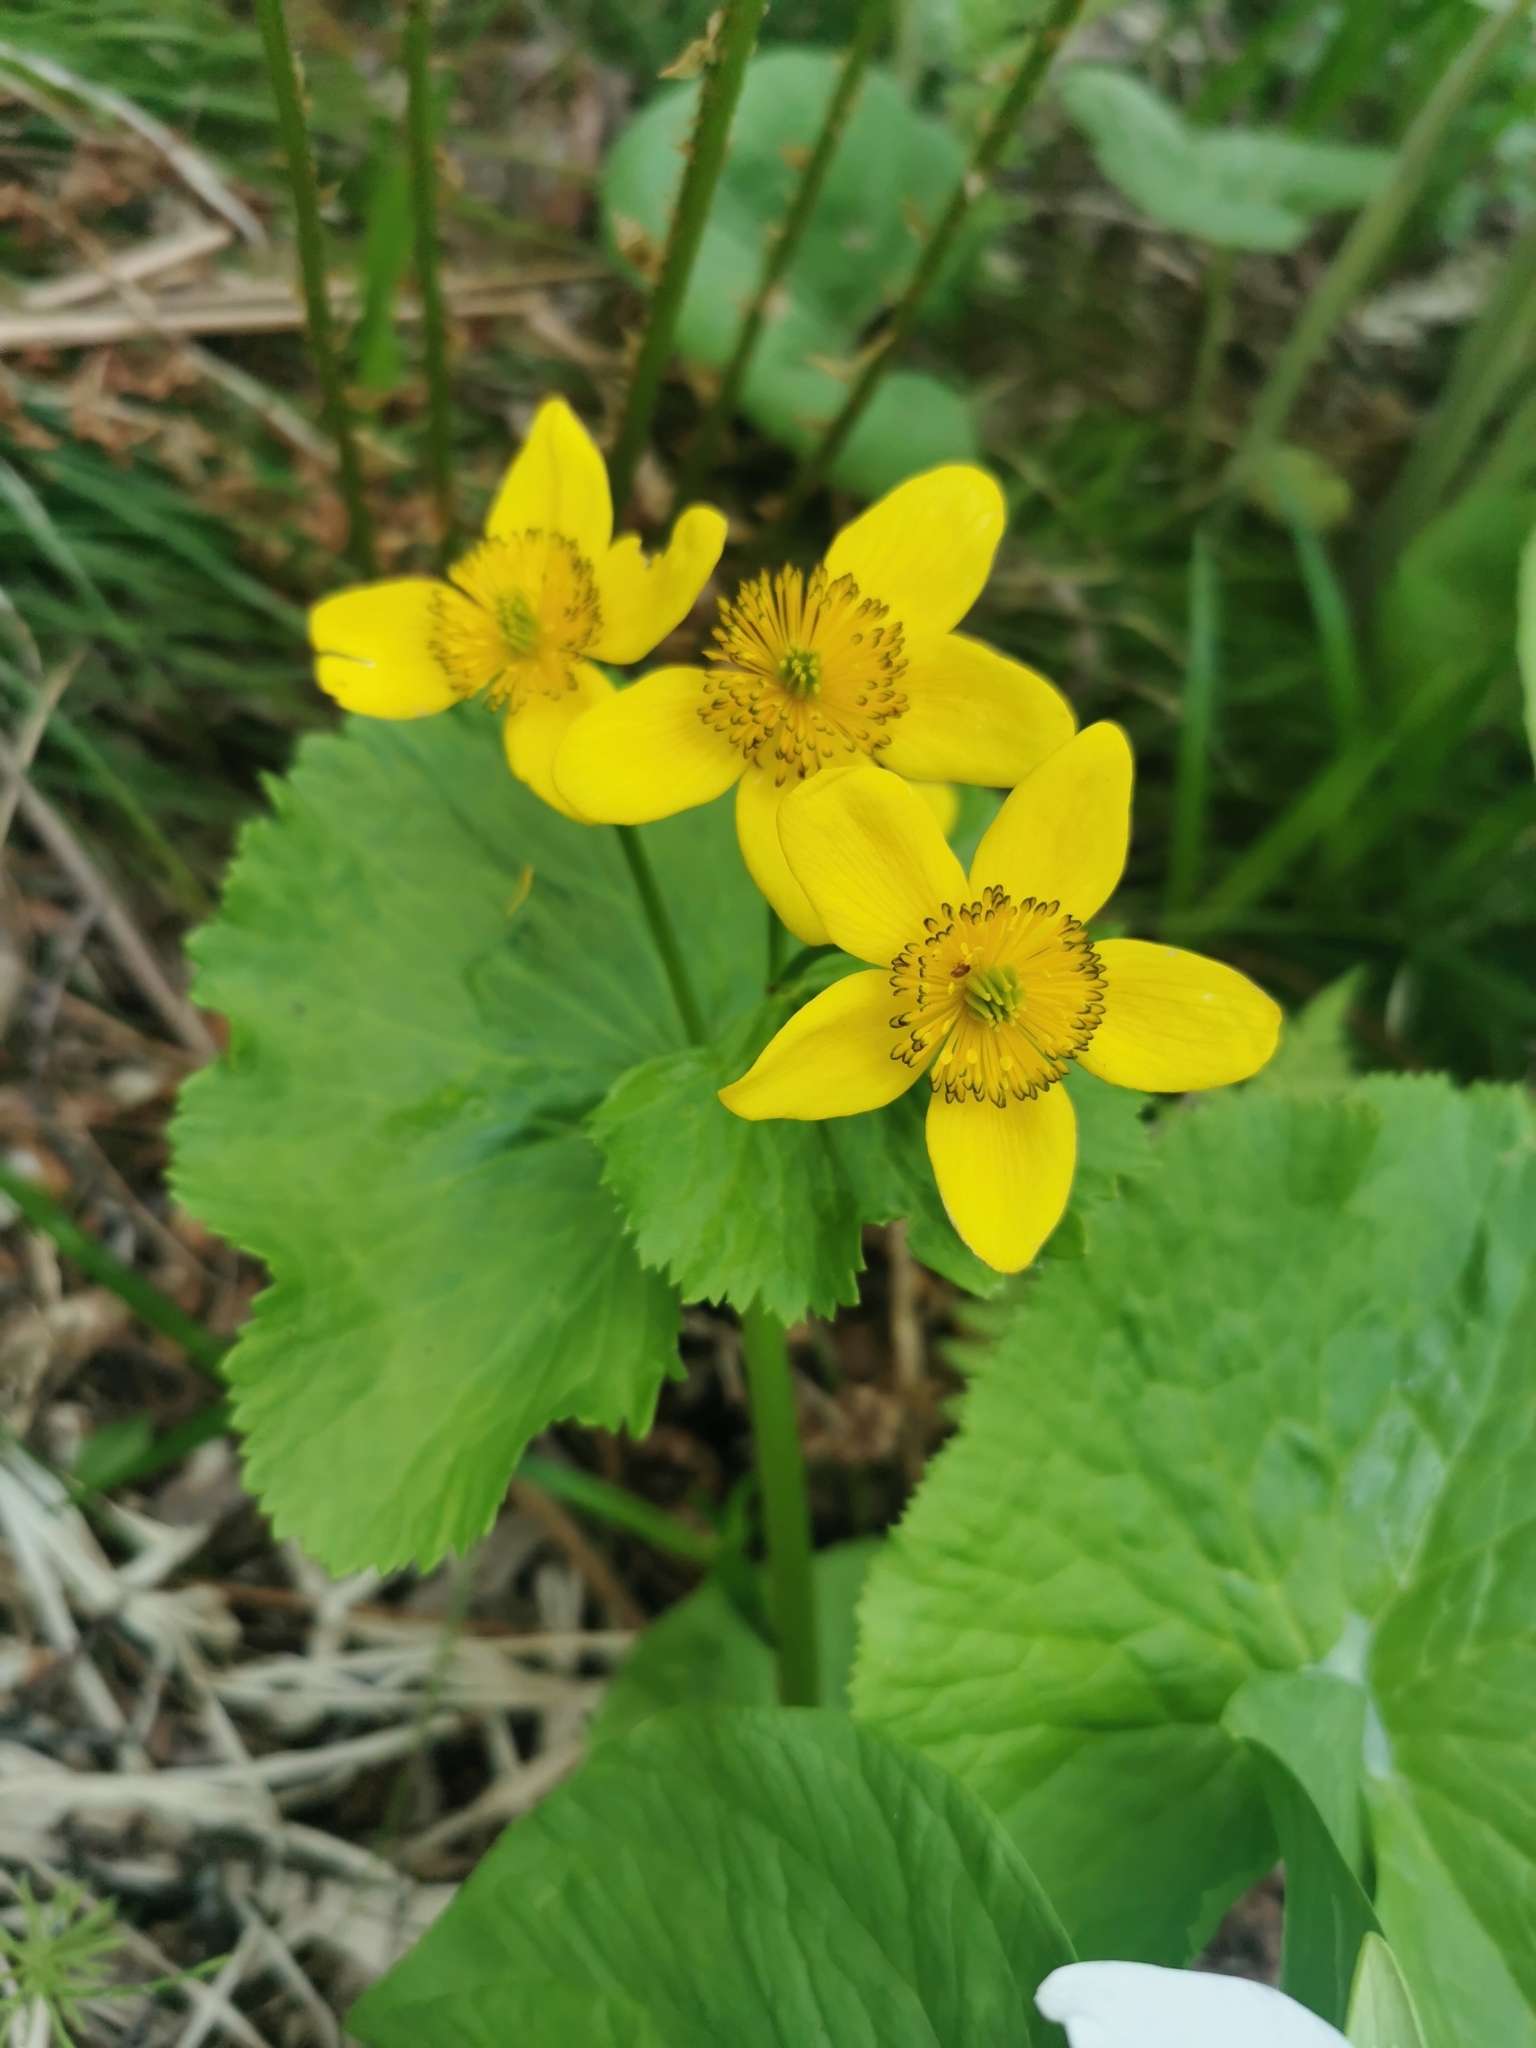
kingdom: Plantae
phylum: Tracheophyta
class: Magnoliopsida
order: Ranunculales
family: Ranunculaceae
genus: Caltha
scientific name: Caltha palustris
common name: Marsh marigold
